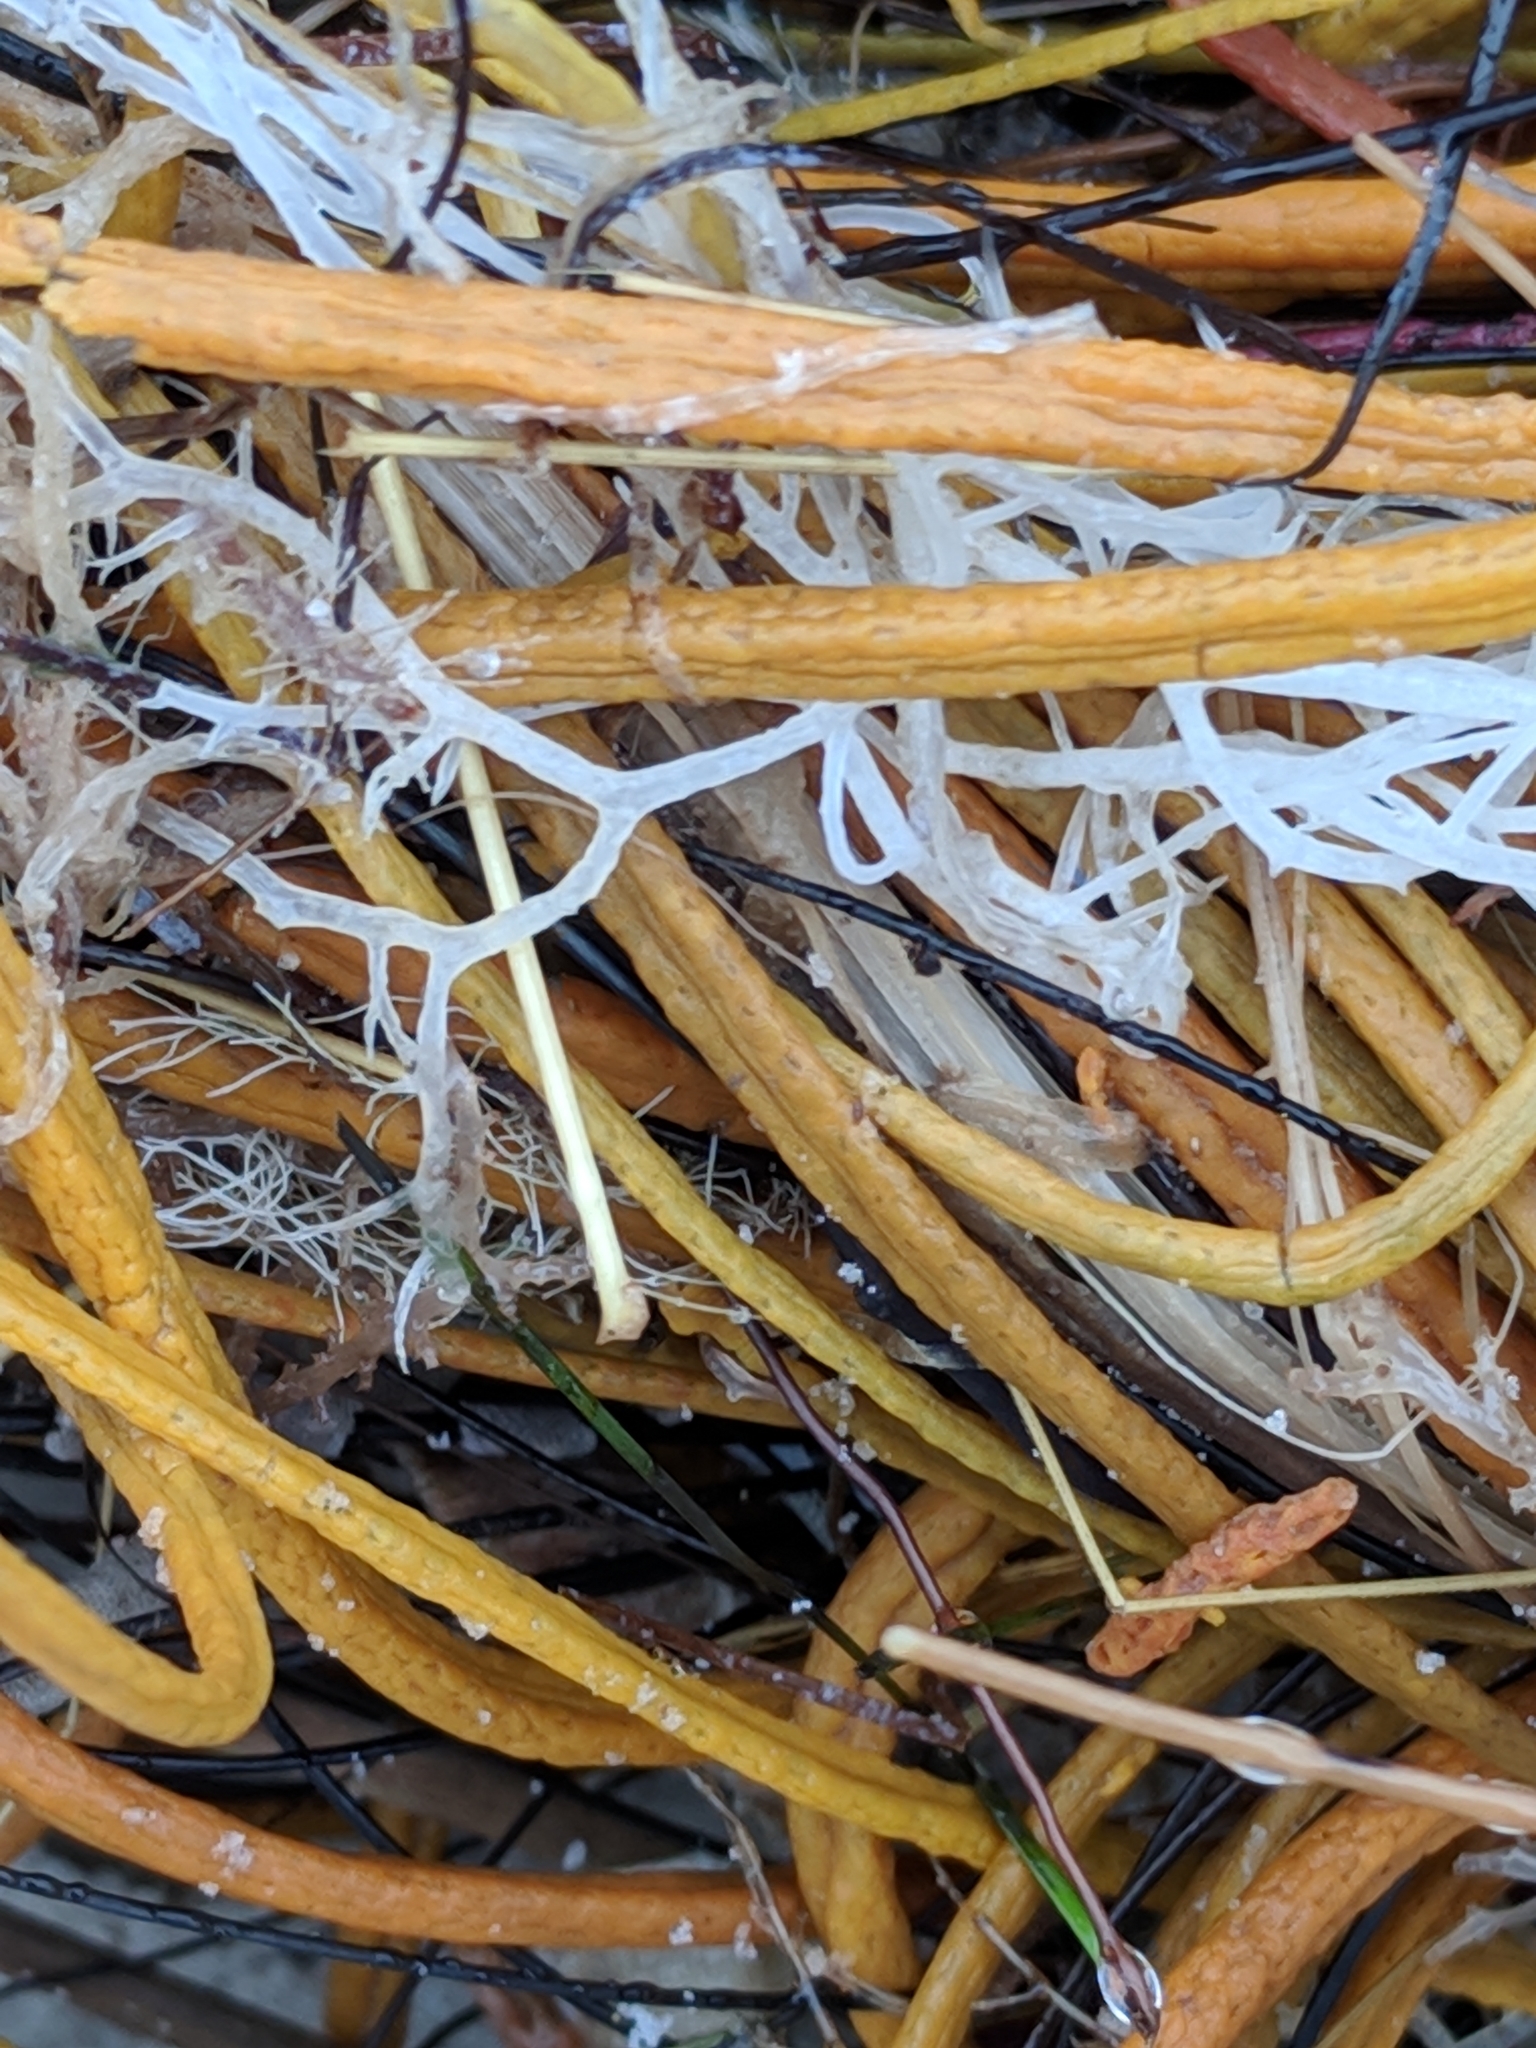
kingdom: Animalia
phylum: Cnidaria
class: Anthozoa
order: Malacalcyonacea
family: Gorgoniidae
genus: Leptogorgia
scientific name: Leptogorgia setacea
